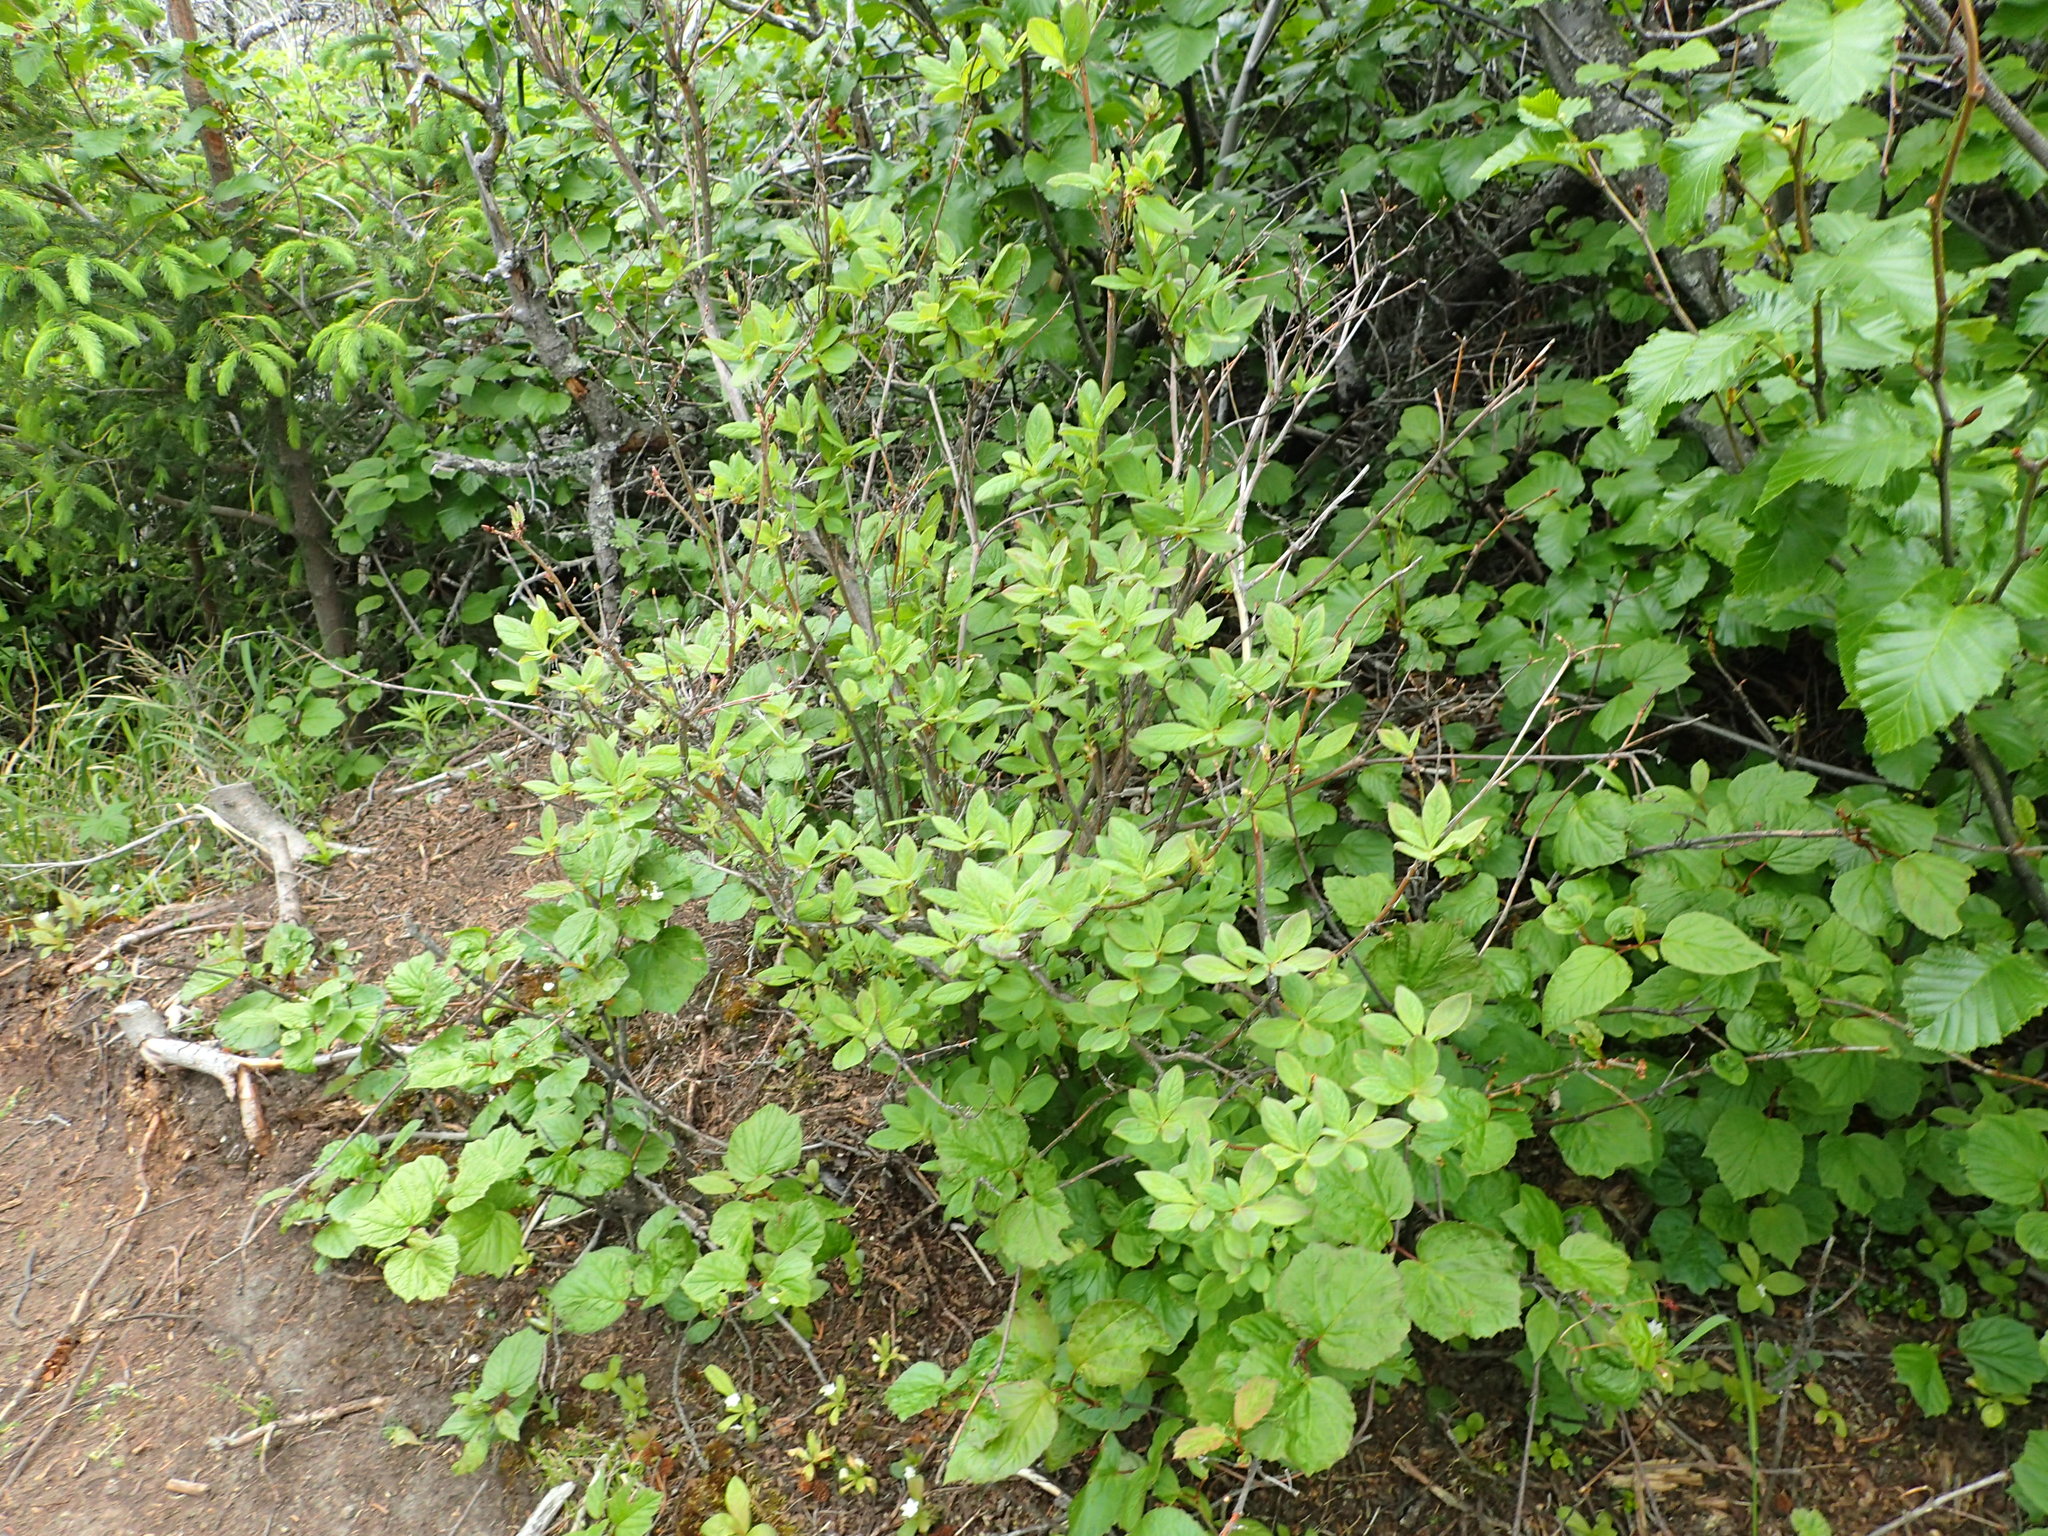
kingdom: Plantae
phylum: Tracheophyta
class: Magnoliopsida
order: Ericales
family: Ericaceae
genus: Rhododendron
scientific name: Rhododendron menziesii
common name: Pacific menziesia
